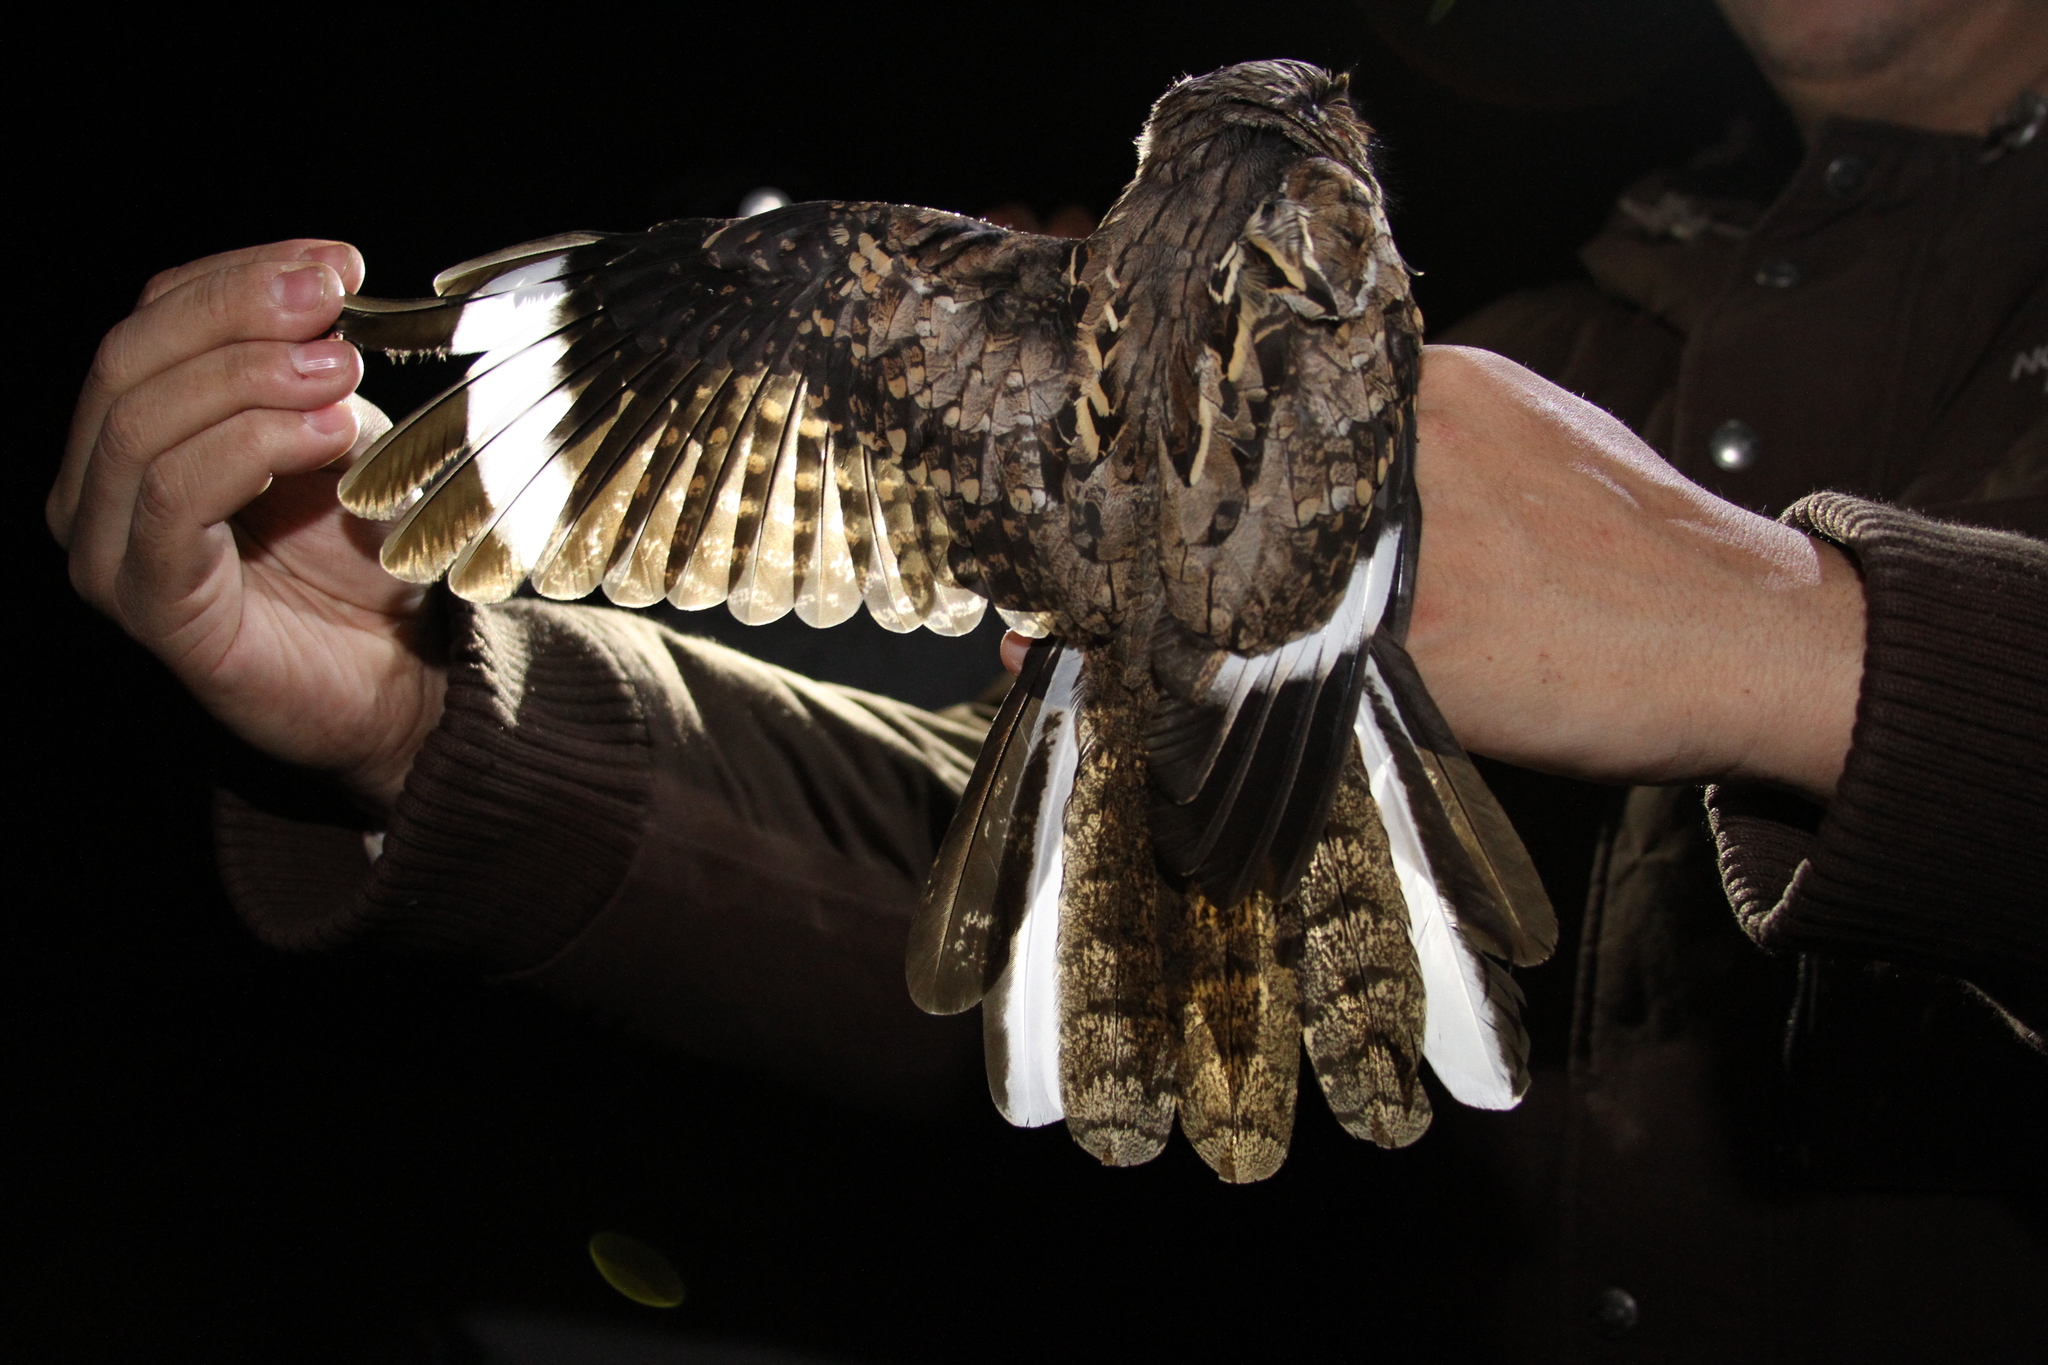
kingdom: Animalia
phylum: Chordata
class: Aves
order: Caprimulgiformes
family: Caprimulgidae
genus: Nyctidromus
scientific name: Nyctidromus albicollis
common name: Pauraque
